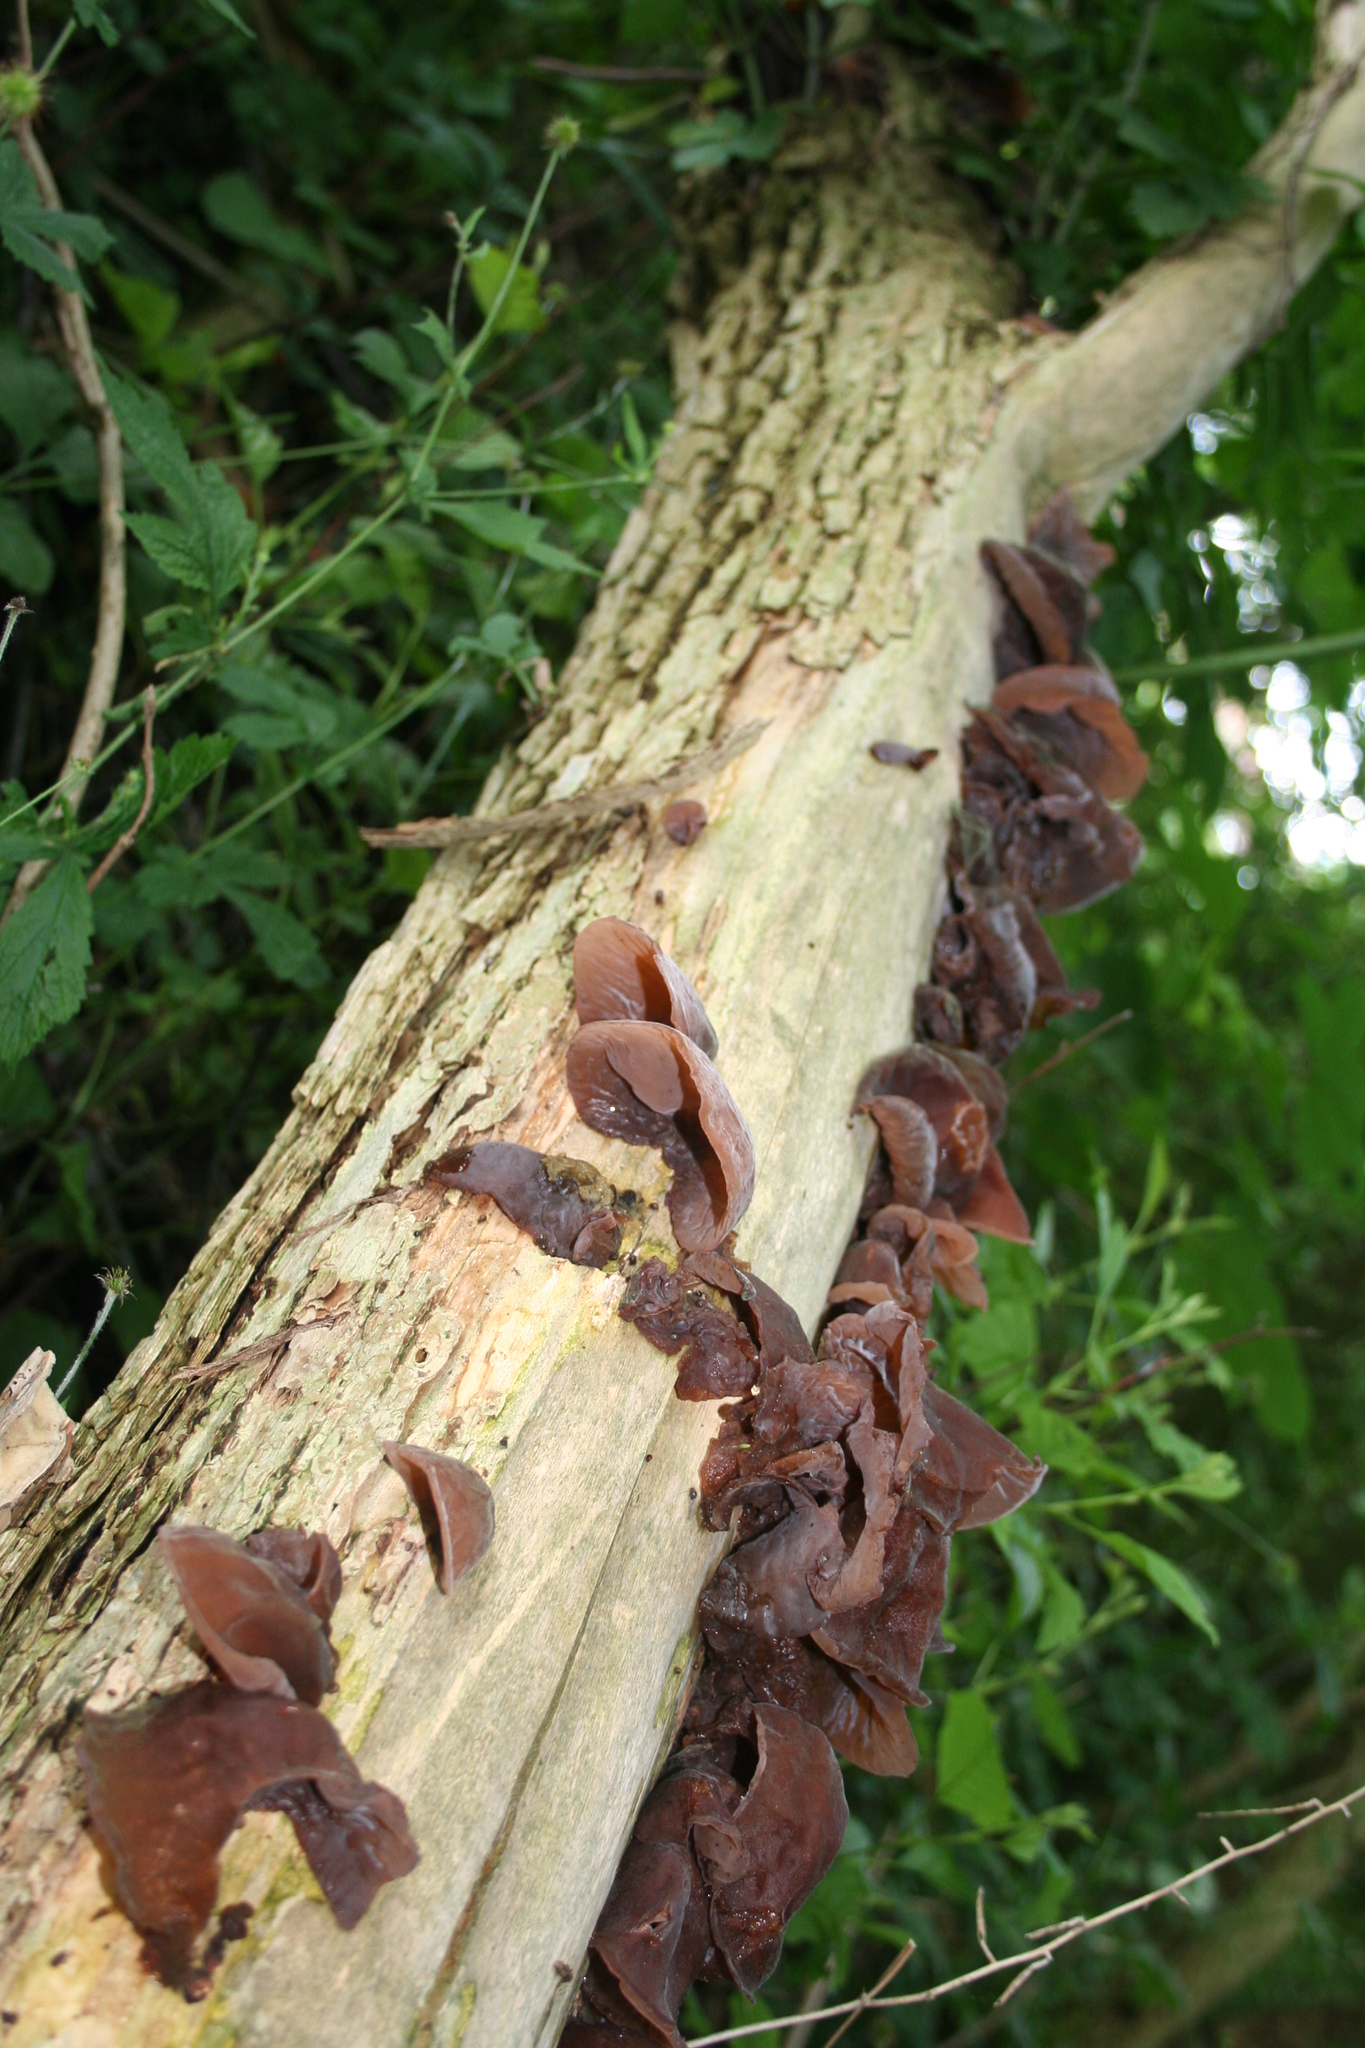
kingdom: Fungi
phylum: Basidiomycota
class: Agaricomycetes
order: Auriculariales
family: Auriculariaceae
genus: Auricularia
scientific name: Auricularia auricula-judae
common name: Jelly ear
